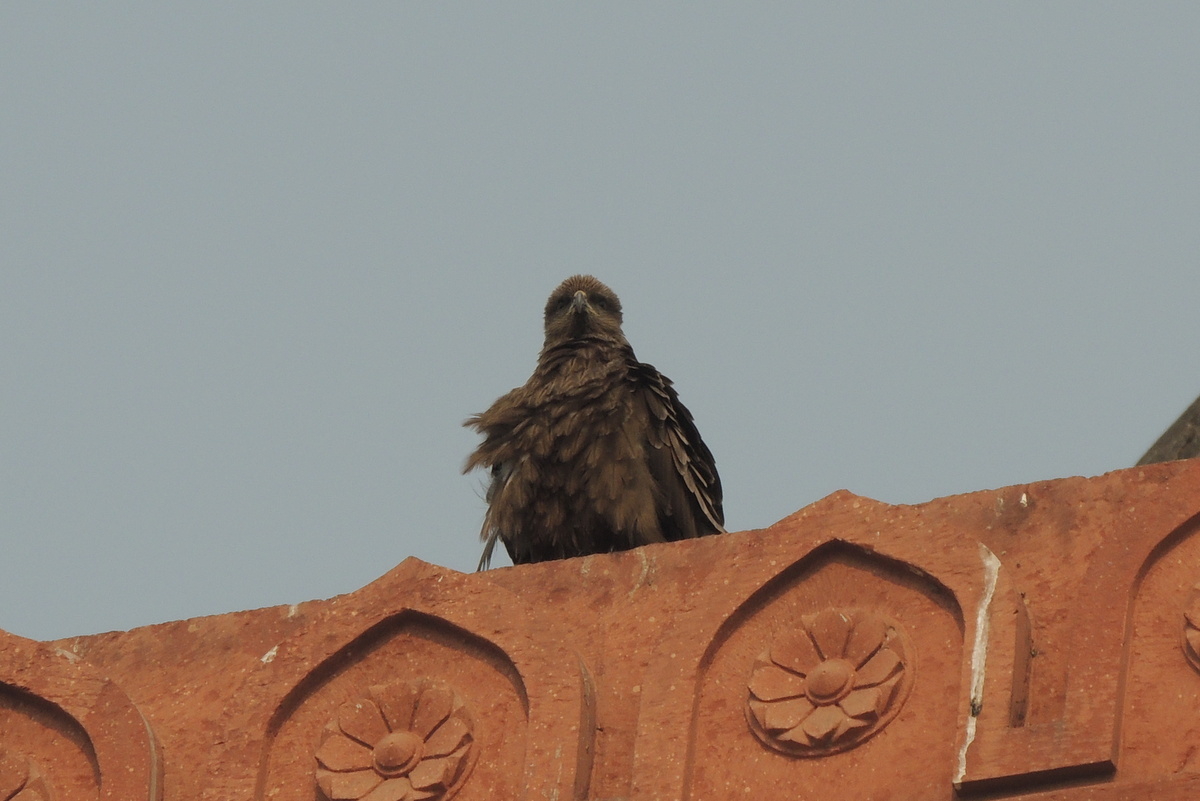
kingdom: Animalia
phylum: Chordata
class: Aves
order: Accipitriformes
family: Accipitridae
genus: Milvus
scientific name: Milvus migrans
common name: Black kite
